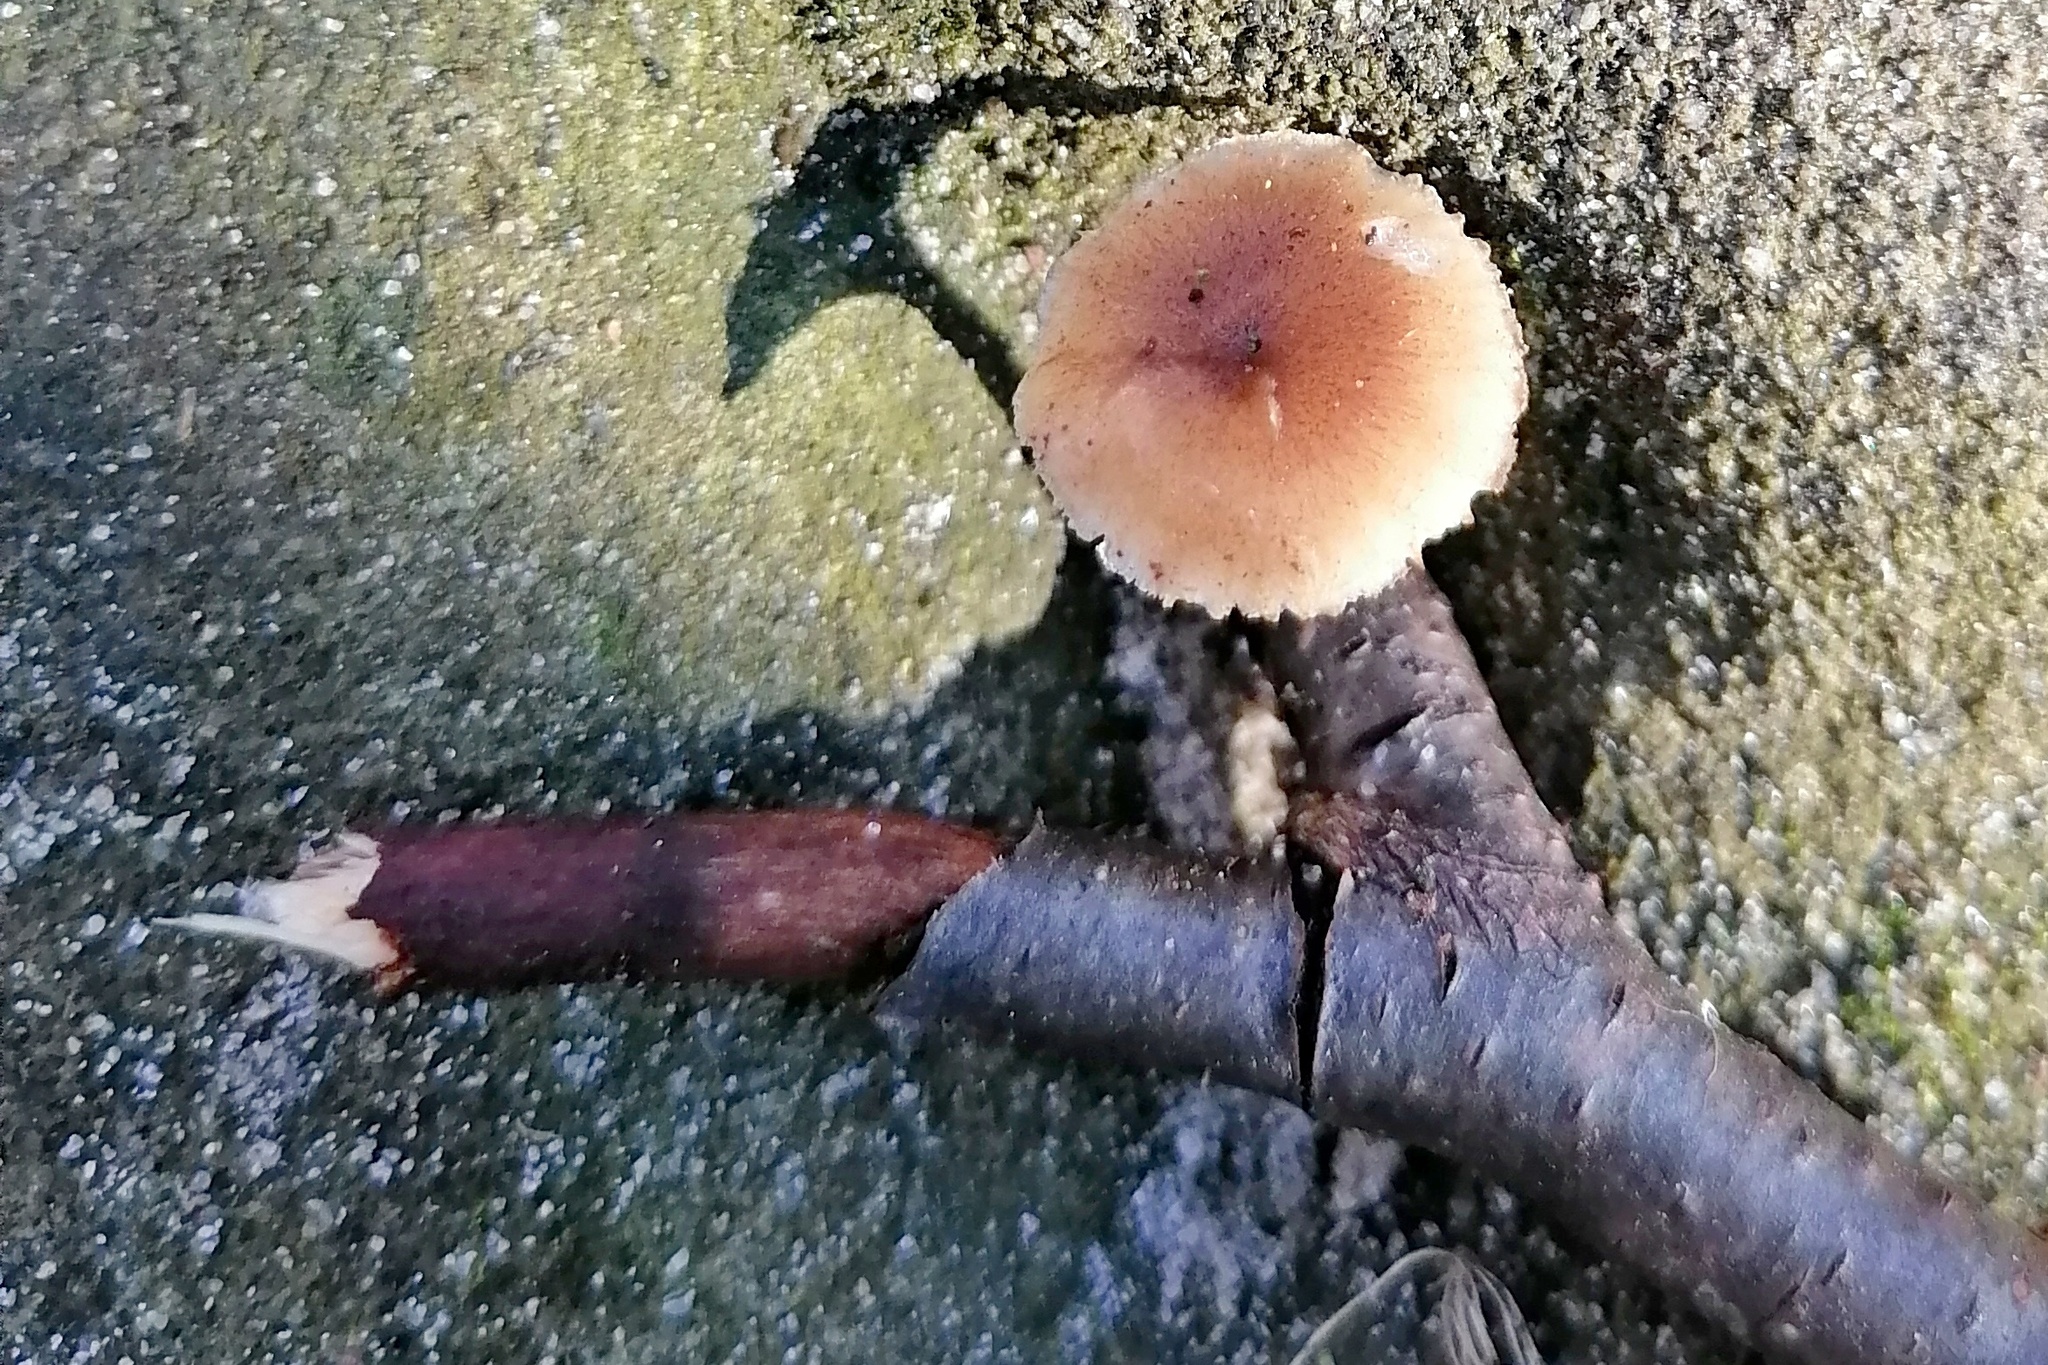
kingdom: Fungi
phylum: Basidiomycota
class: Agaricomycetes
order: Polyporales
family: Polyporaceae
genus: Lentinus
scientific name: Lentinus brumalis
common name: Winter polypore
